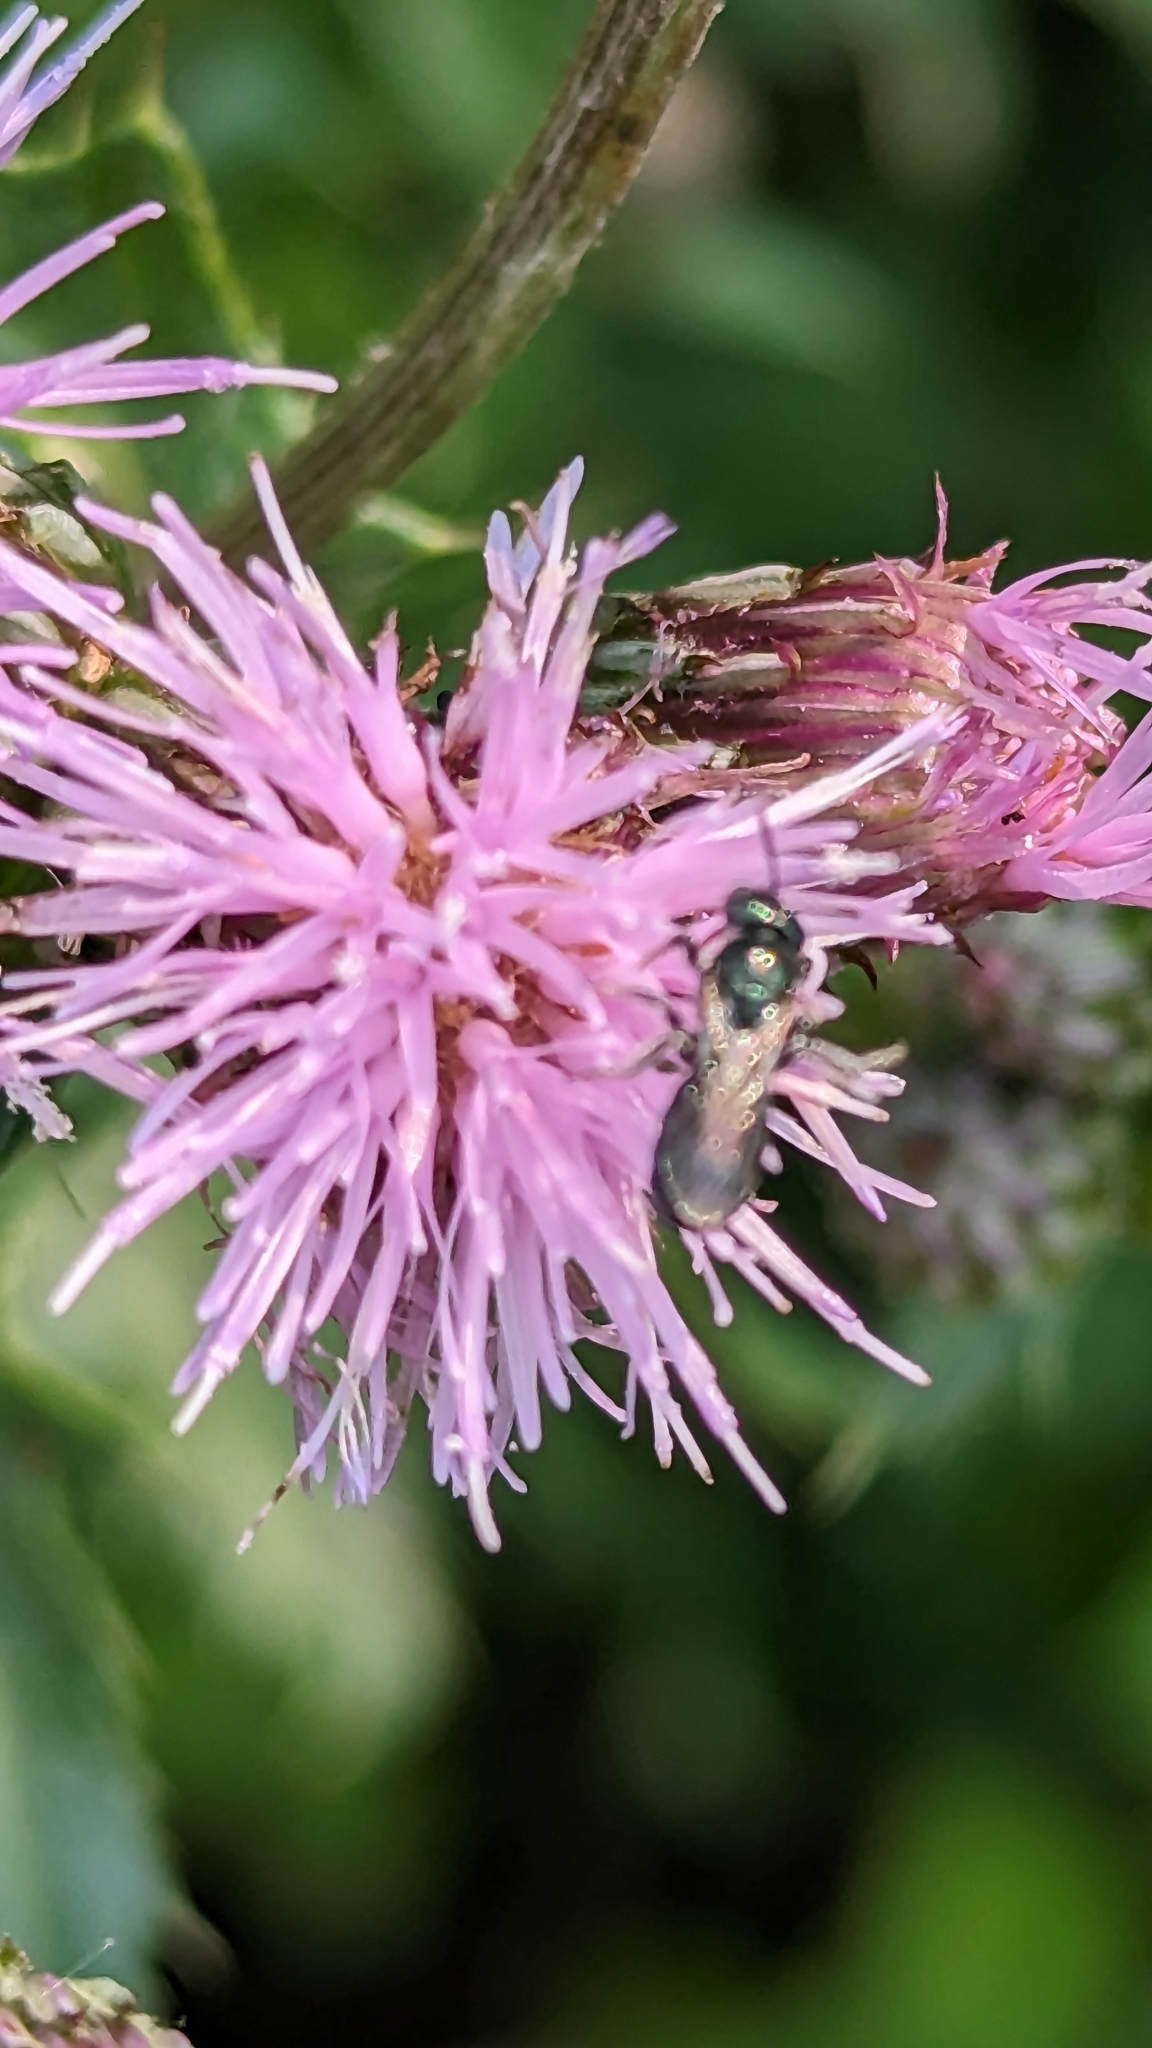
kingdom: Plantae
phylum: Tracheophyta
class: Magnoliopsida
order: Asterales
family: Asteraceae
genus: Cirsium
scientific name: Cirsium arvense
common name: Creeping thistle
